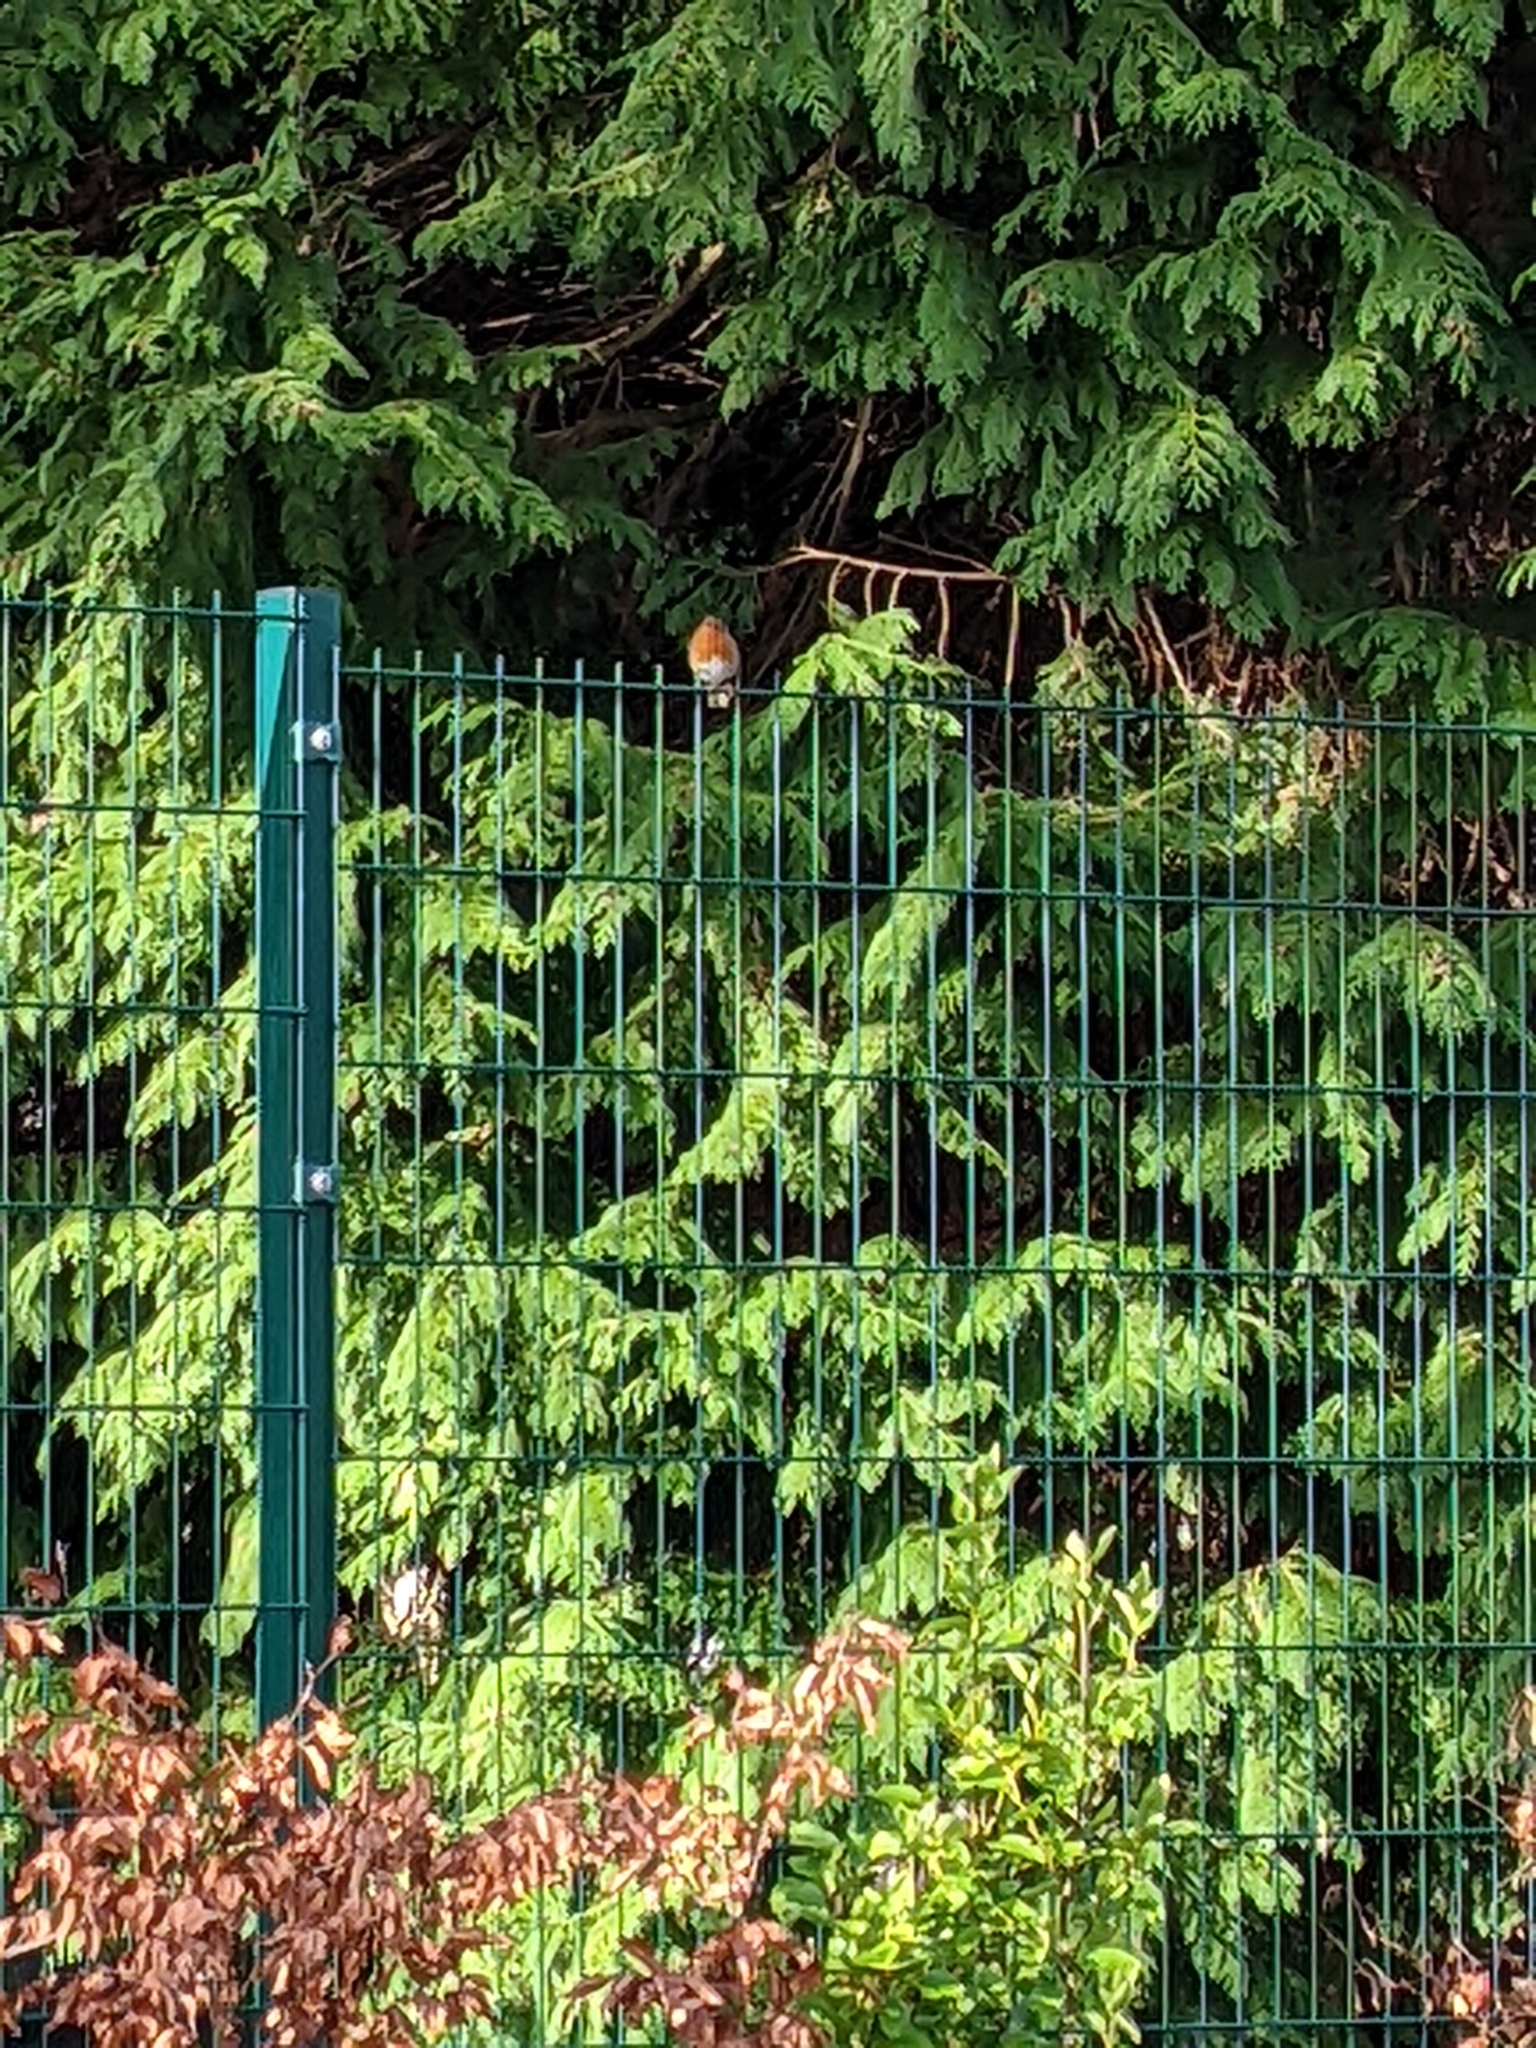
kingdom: Animalia
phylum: Chordata
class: Aves
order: Passeriformes
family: Muscicapidae
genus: Erithacus
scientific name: Erithacus rubecula
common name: European robin
